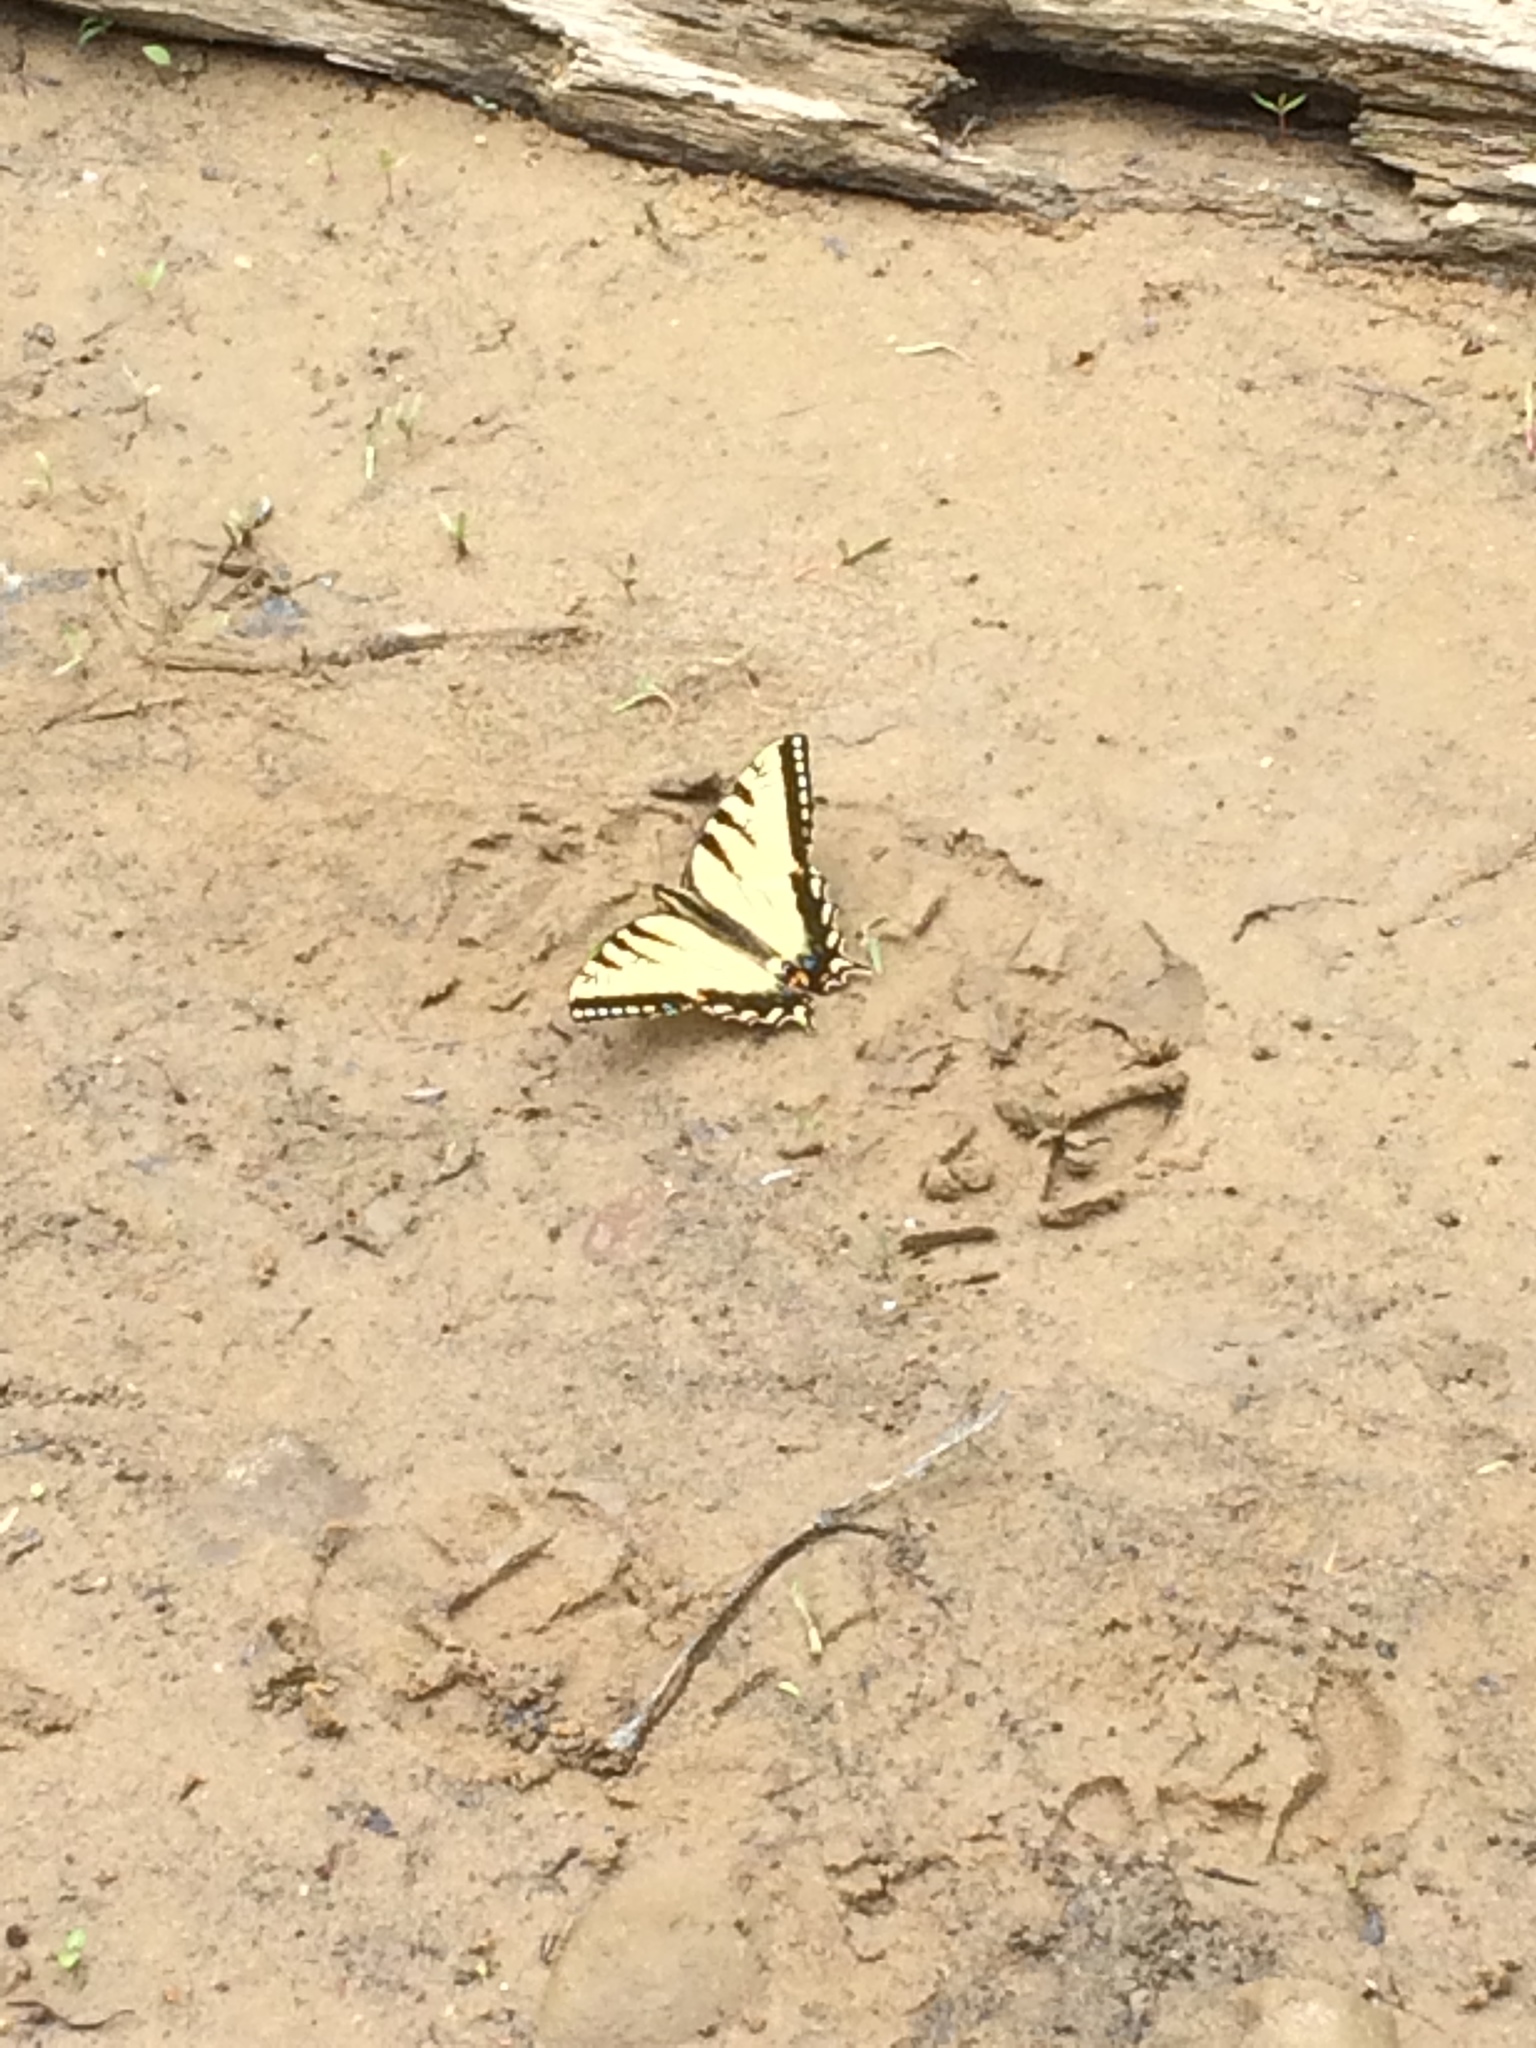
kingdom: Animalia
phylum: Arthropoda
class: Insecta
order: Lepidoptera
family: Papilionidae
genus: Papilio
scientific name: Papilio glaucus
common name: Tiger swallowtail
